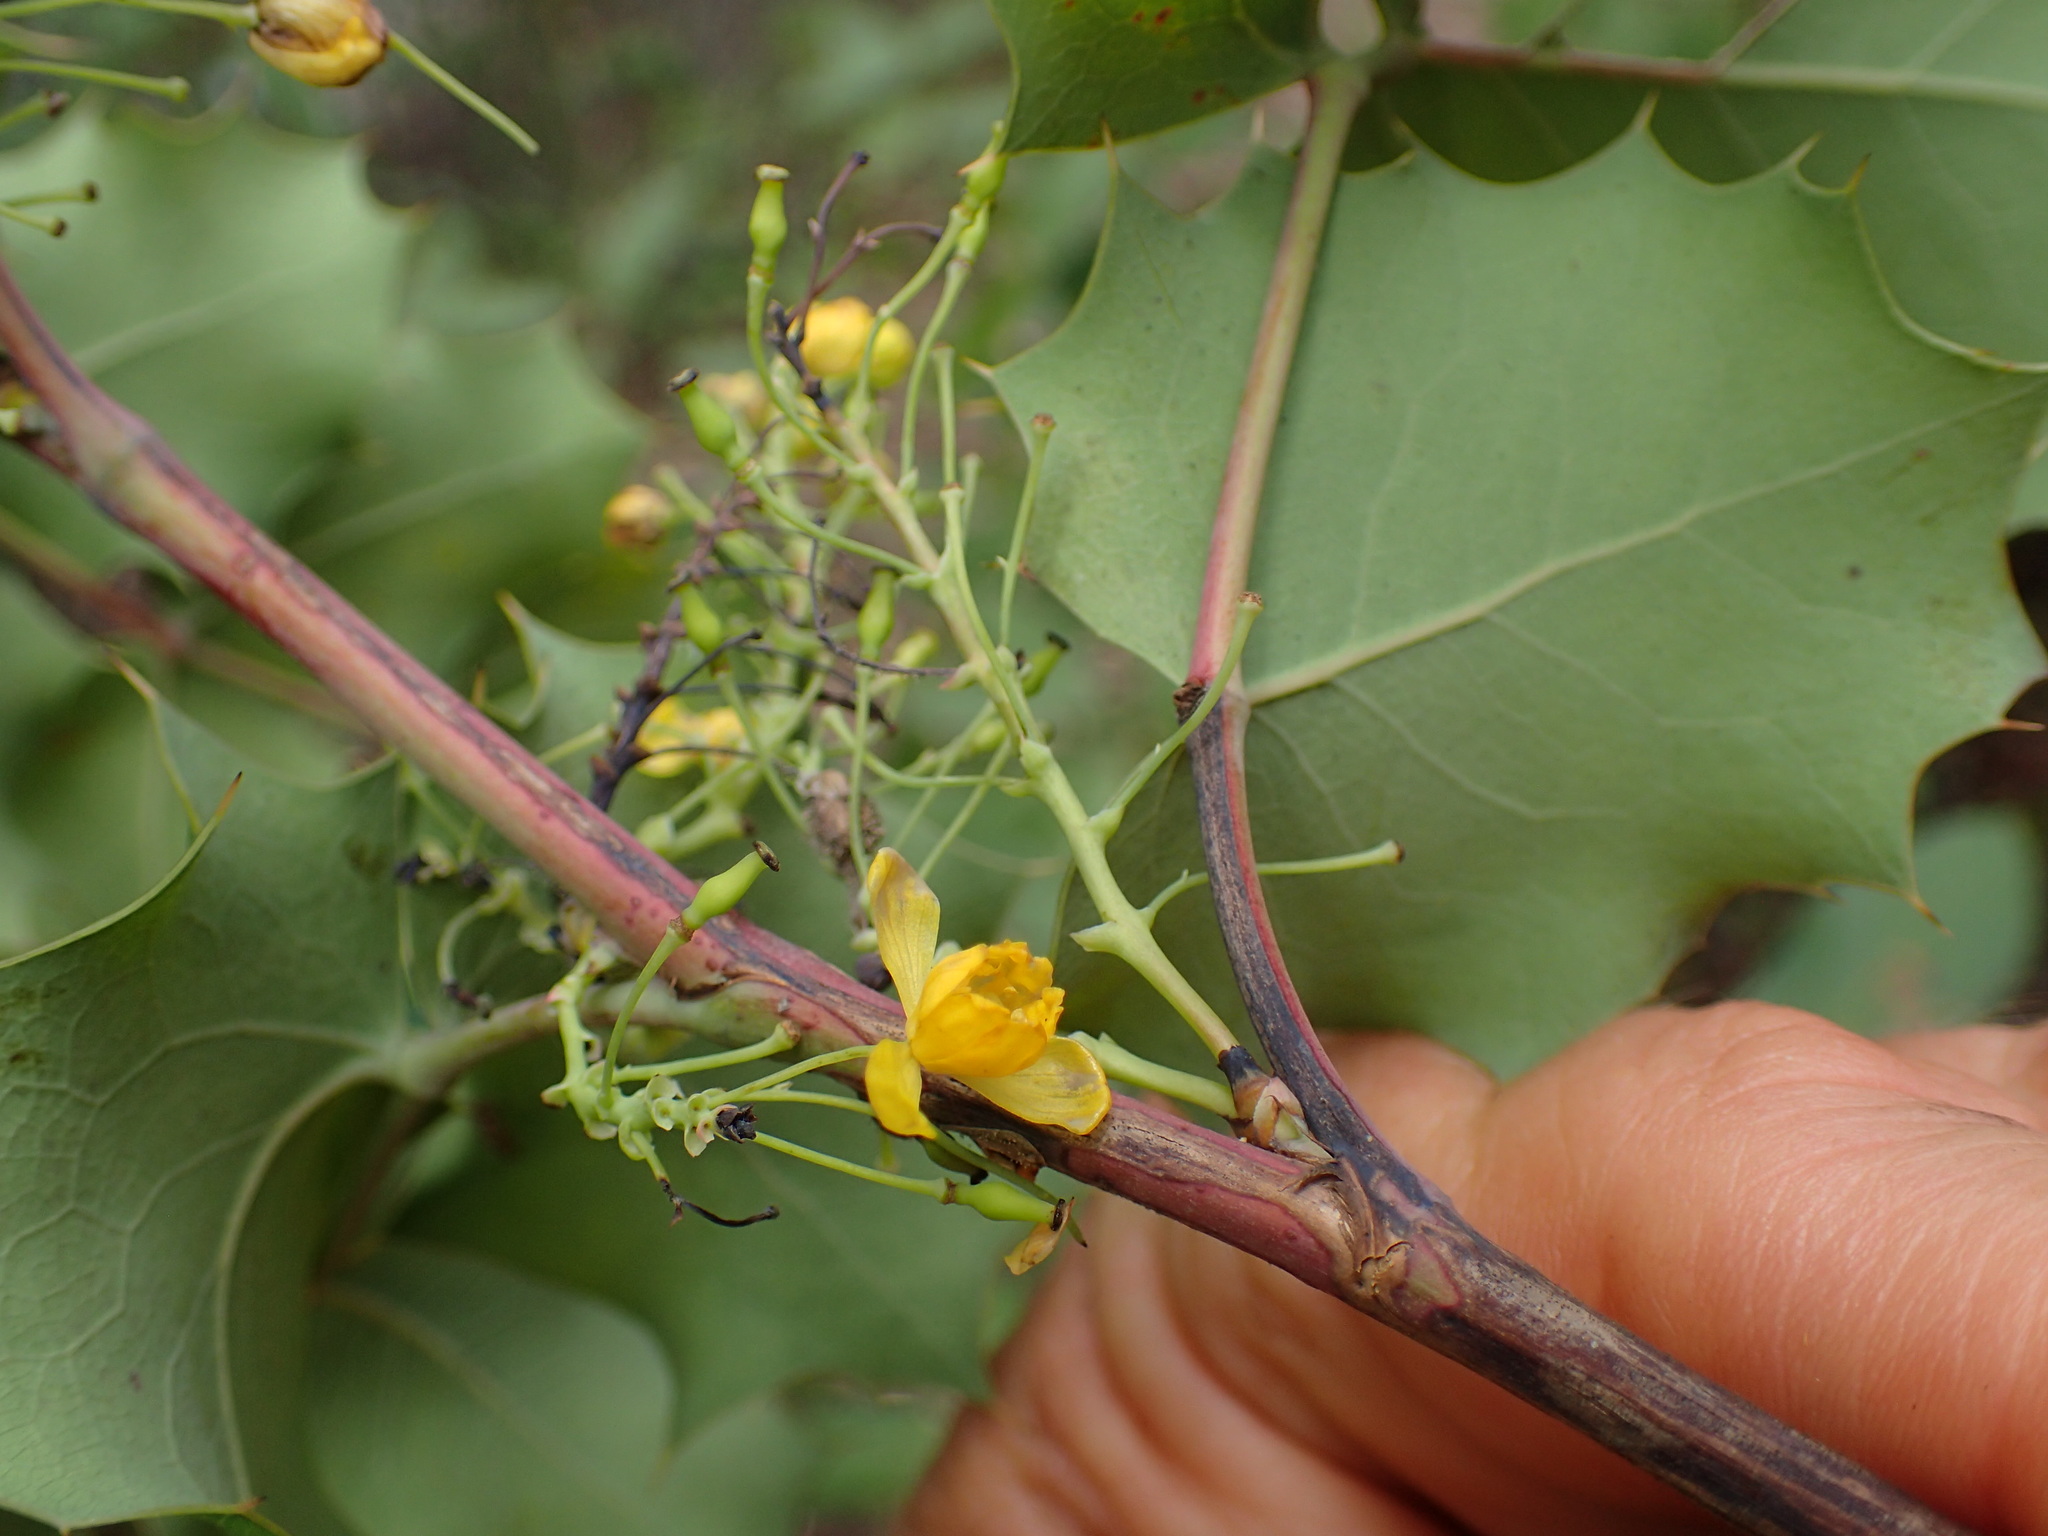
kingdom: Plantae
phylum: Tracheophyta
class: Magnoliopsida
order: Ranunculales
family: Berberidaceae
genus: Mahonia
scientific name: Mahonia dictyota
